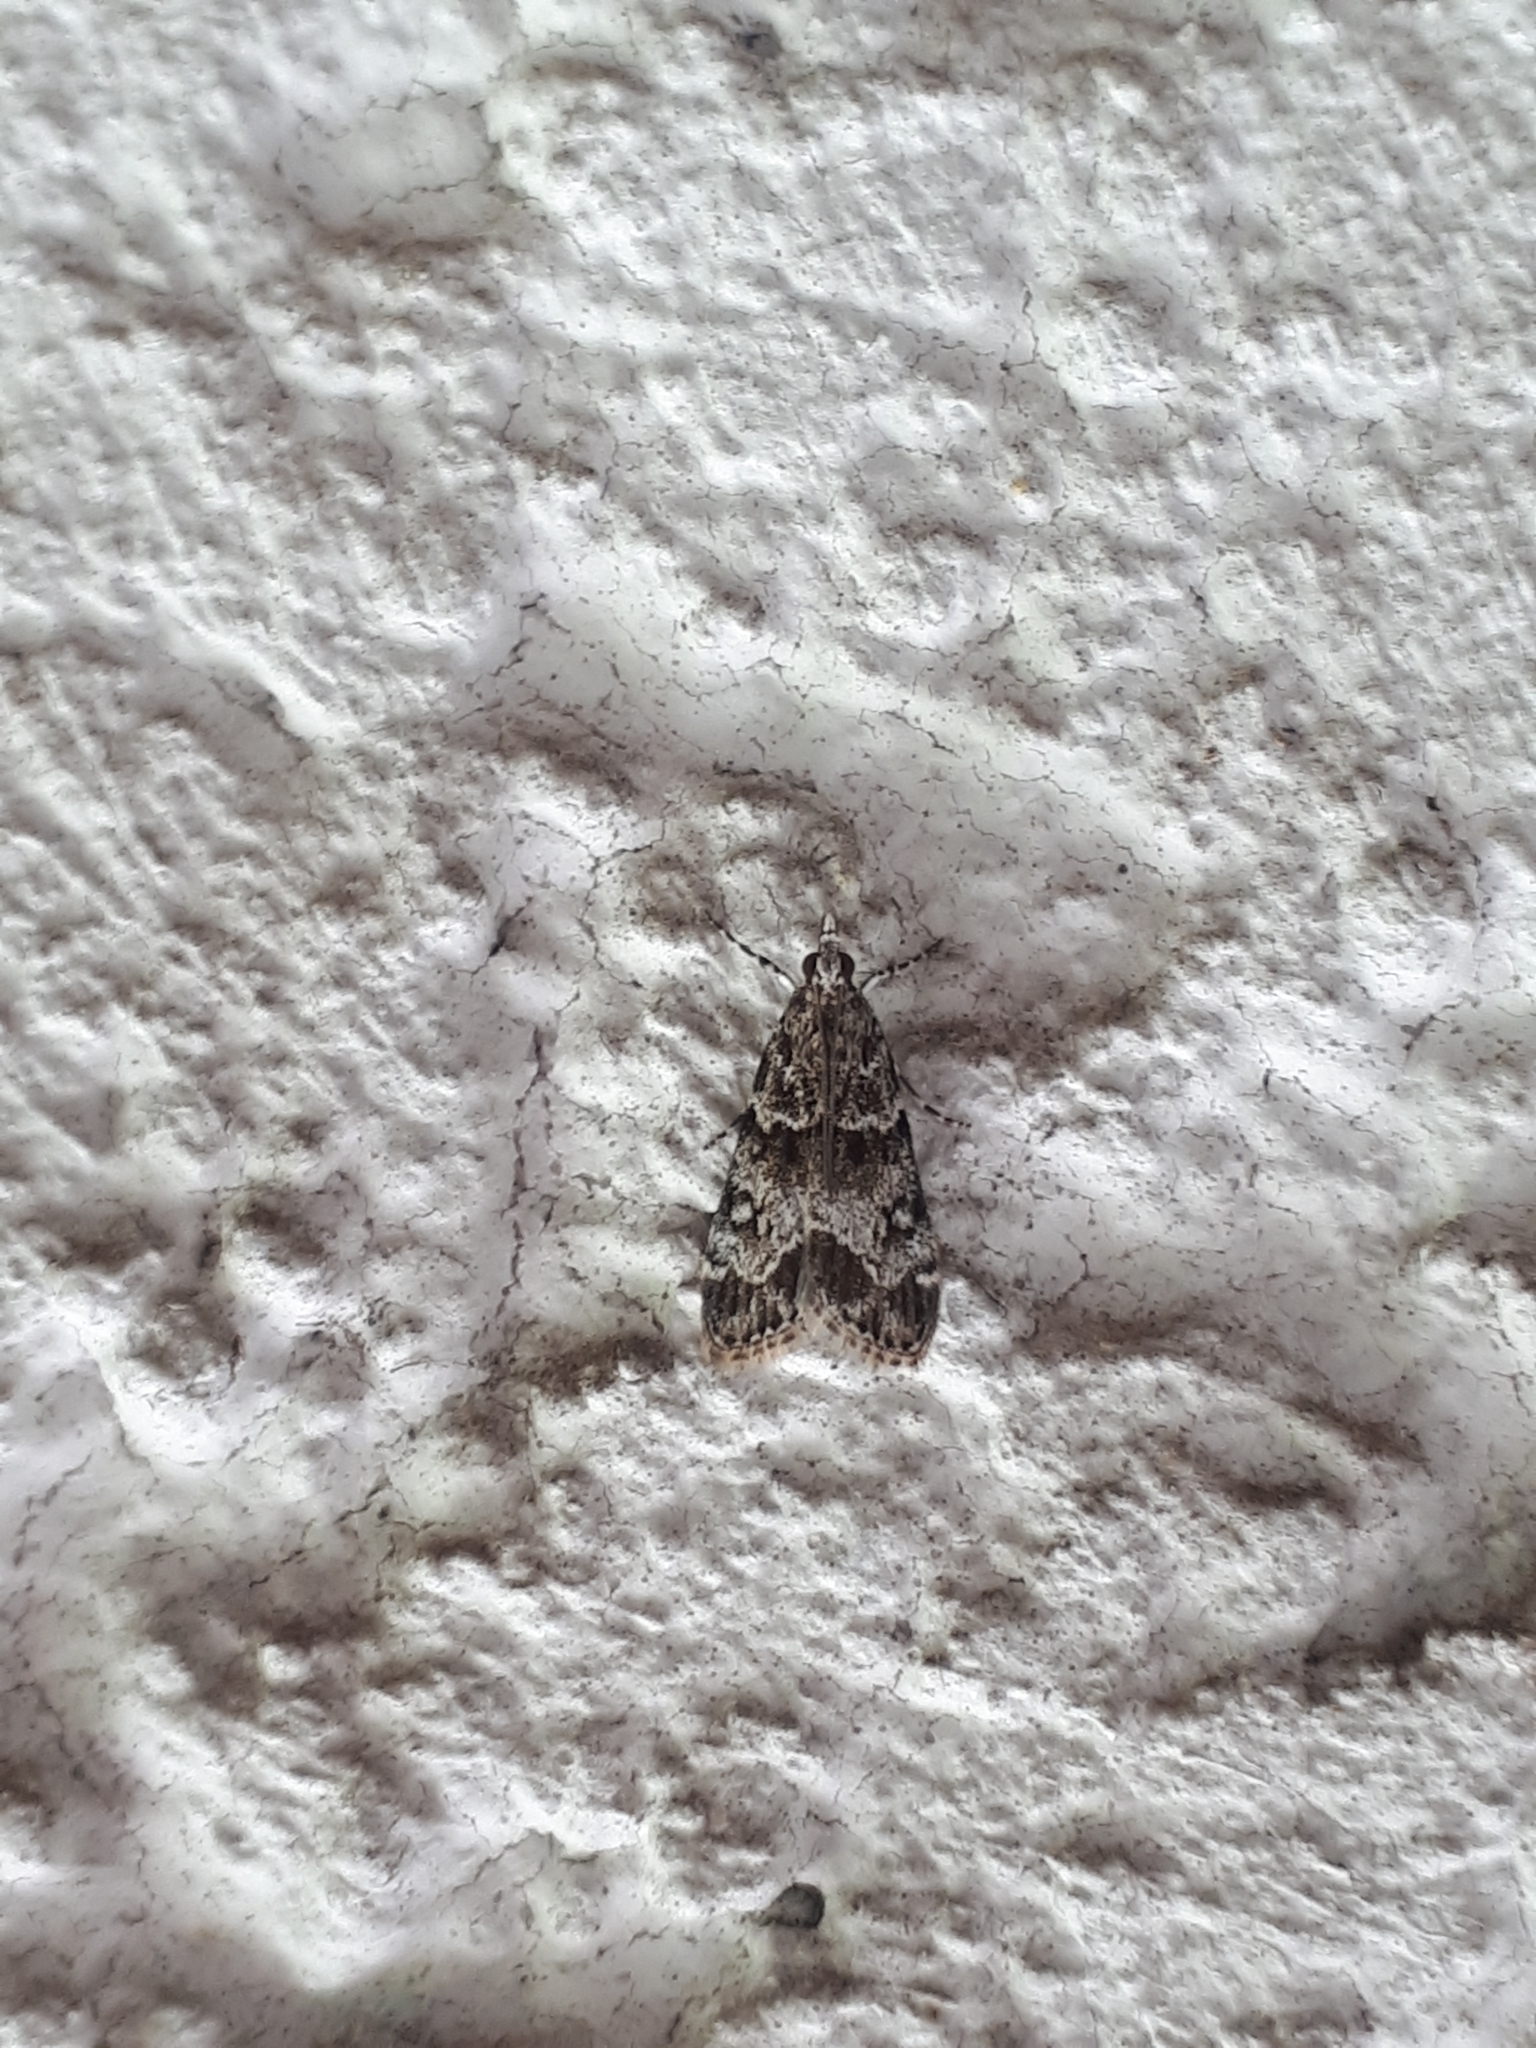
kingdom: Animalia
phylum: Arthropoda
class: Insecta
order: Lepidoptera
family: Crambidae
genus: Eudonia
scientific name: Eudonia mercurella
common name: Small grey
